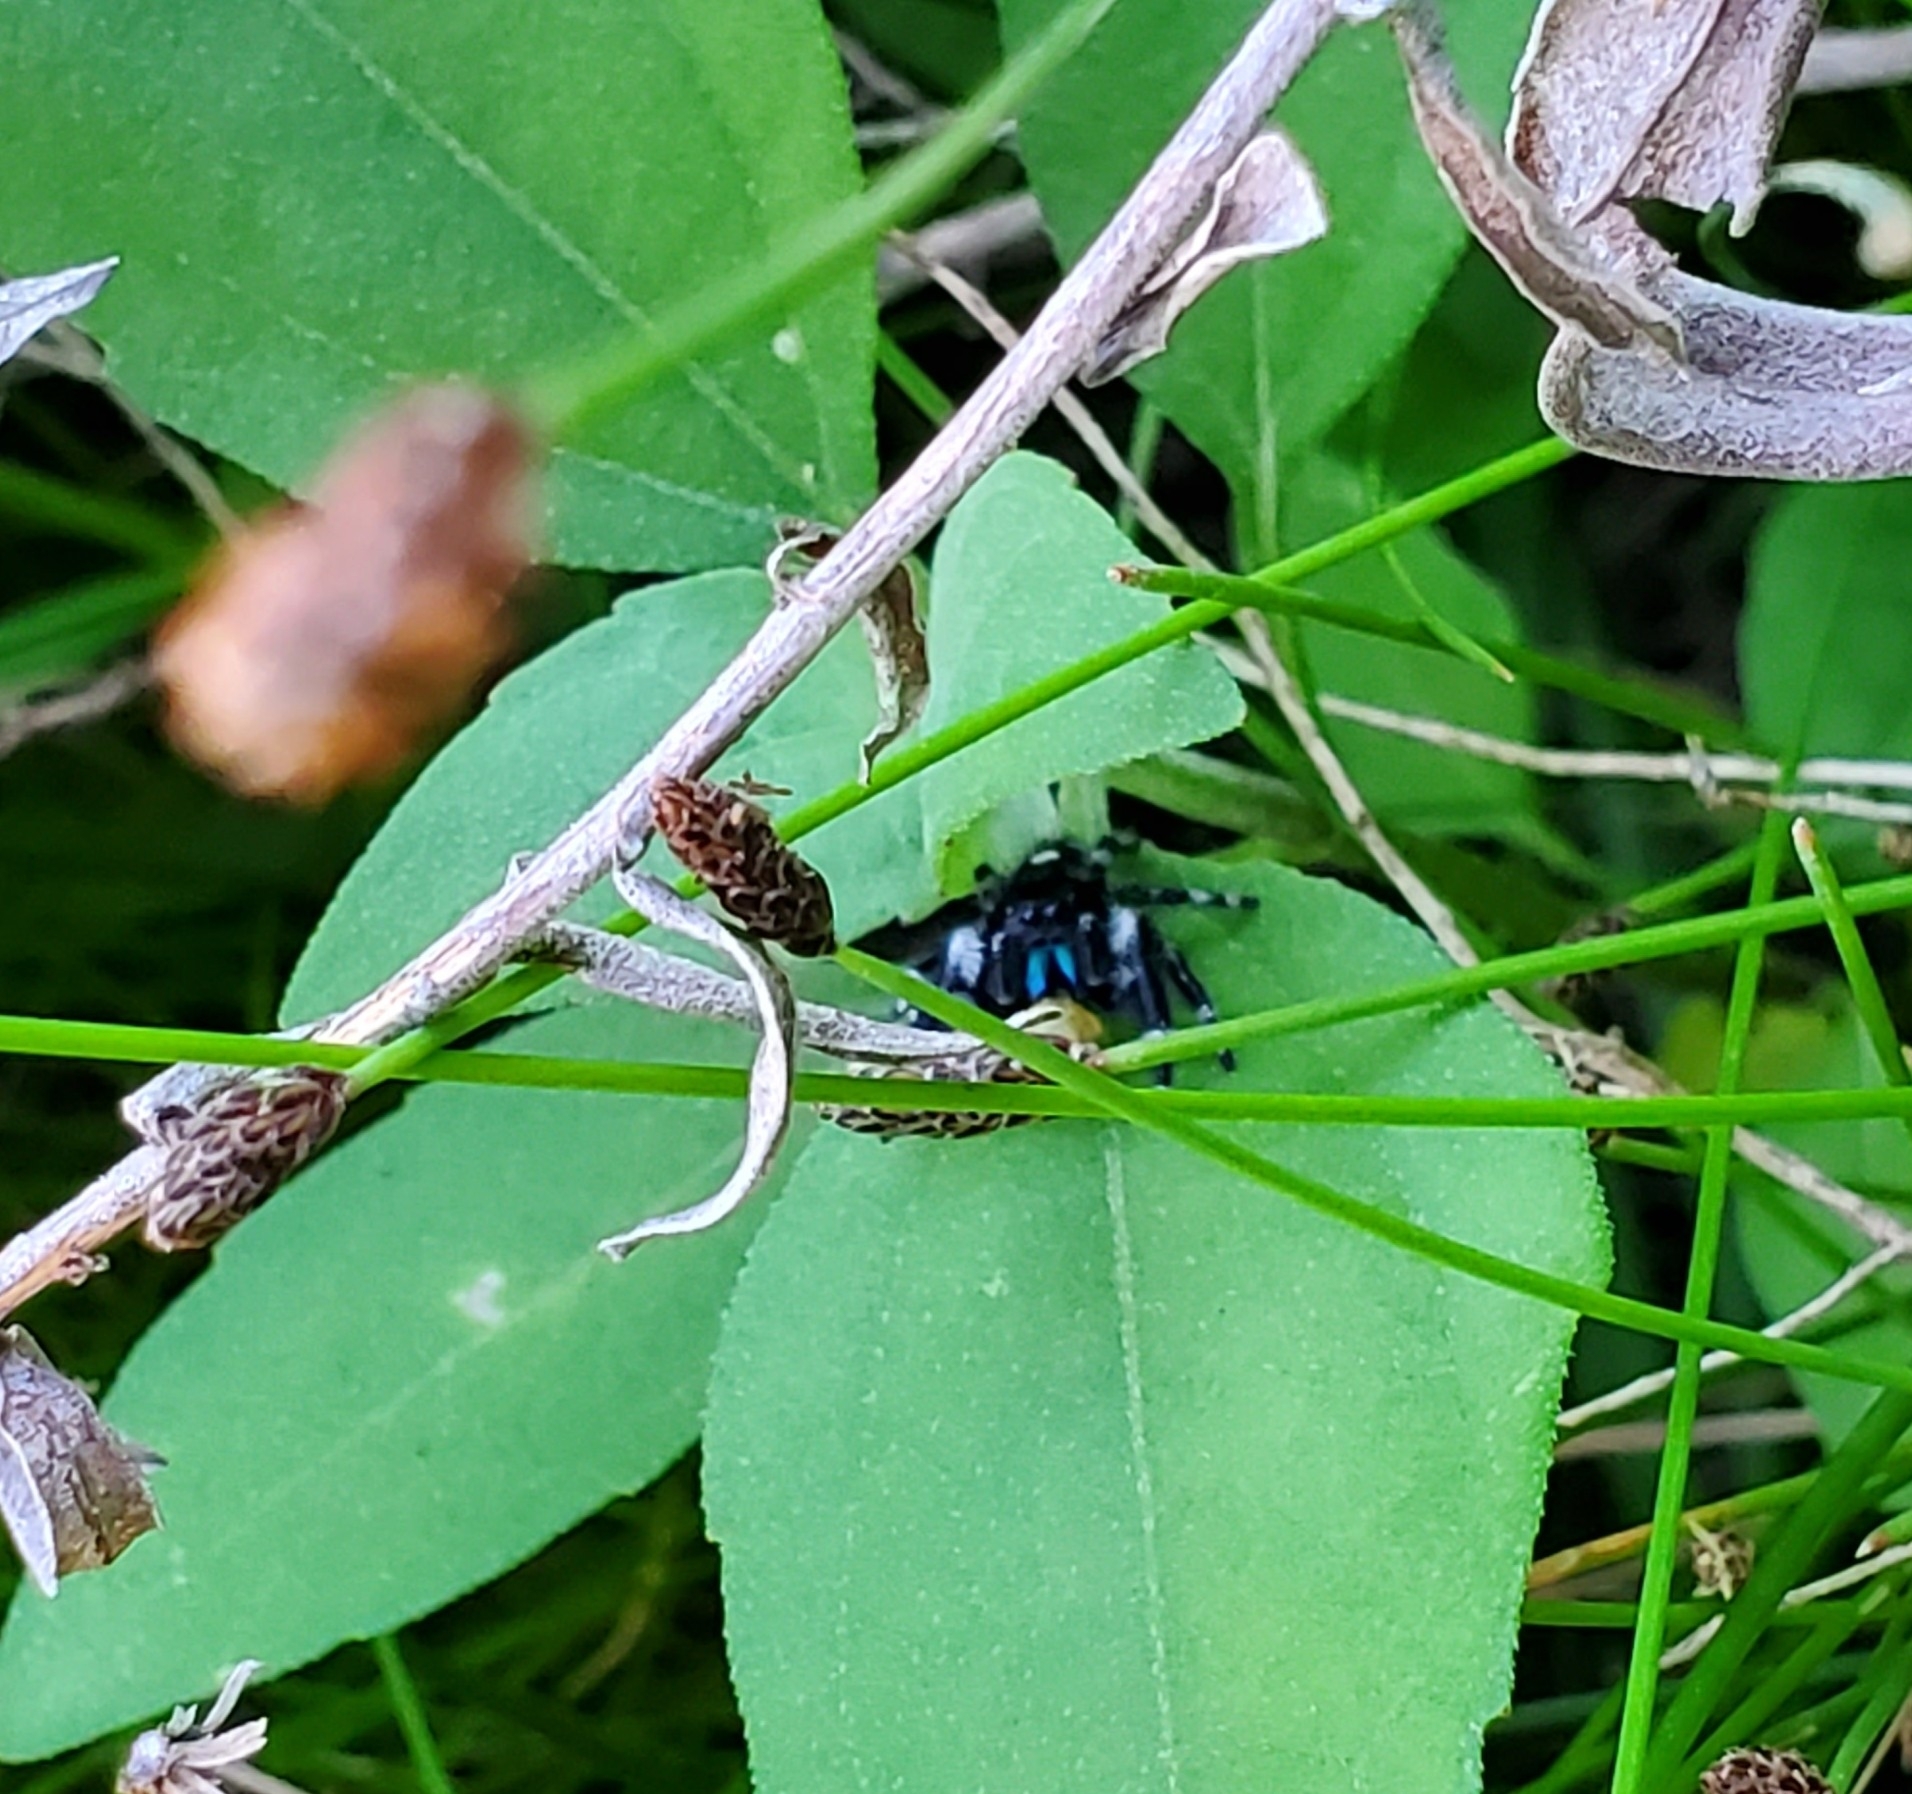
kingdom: Animalia
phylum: Arthropoda
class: Arachnida
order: Araneae
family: Salticidae
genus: Phidippus
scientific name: Phidippus audax
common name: Bold jumper
